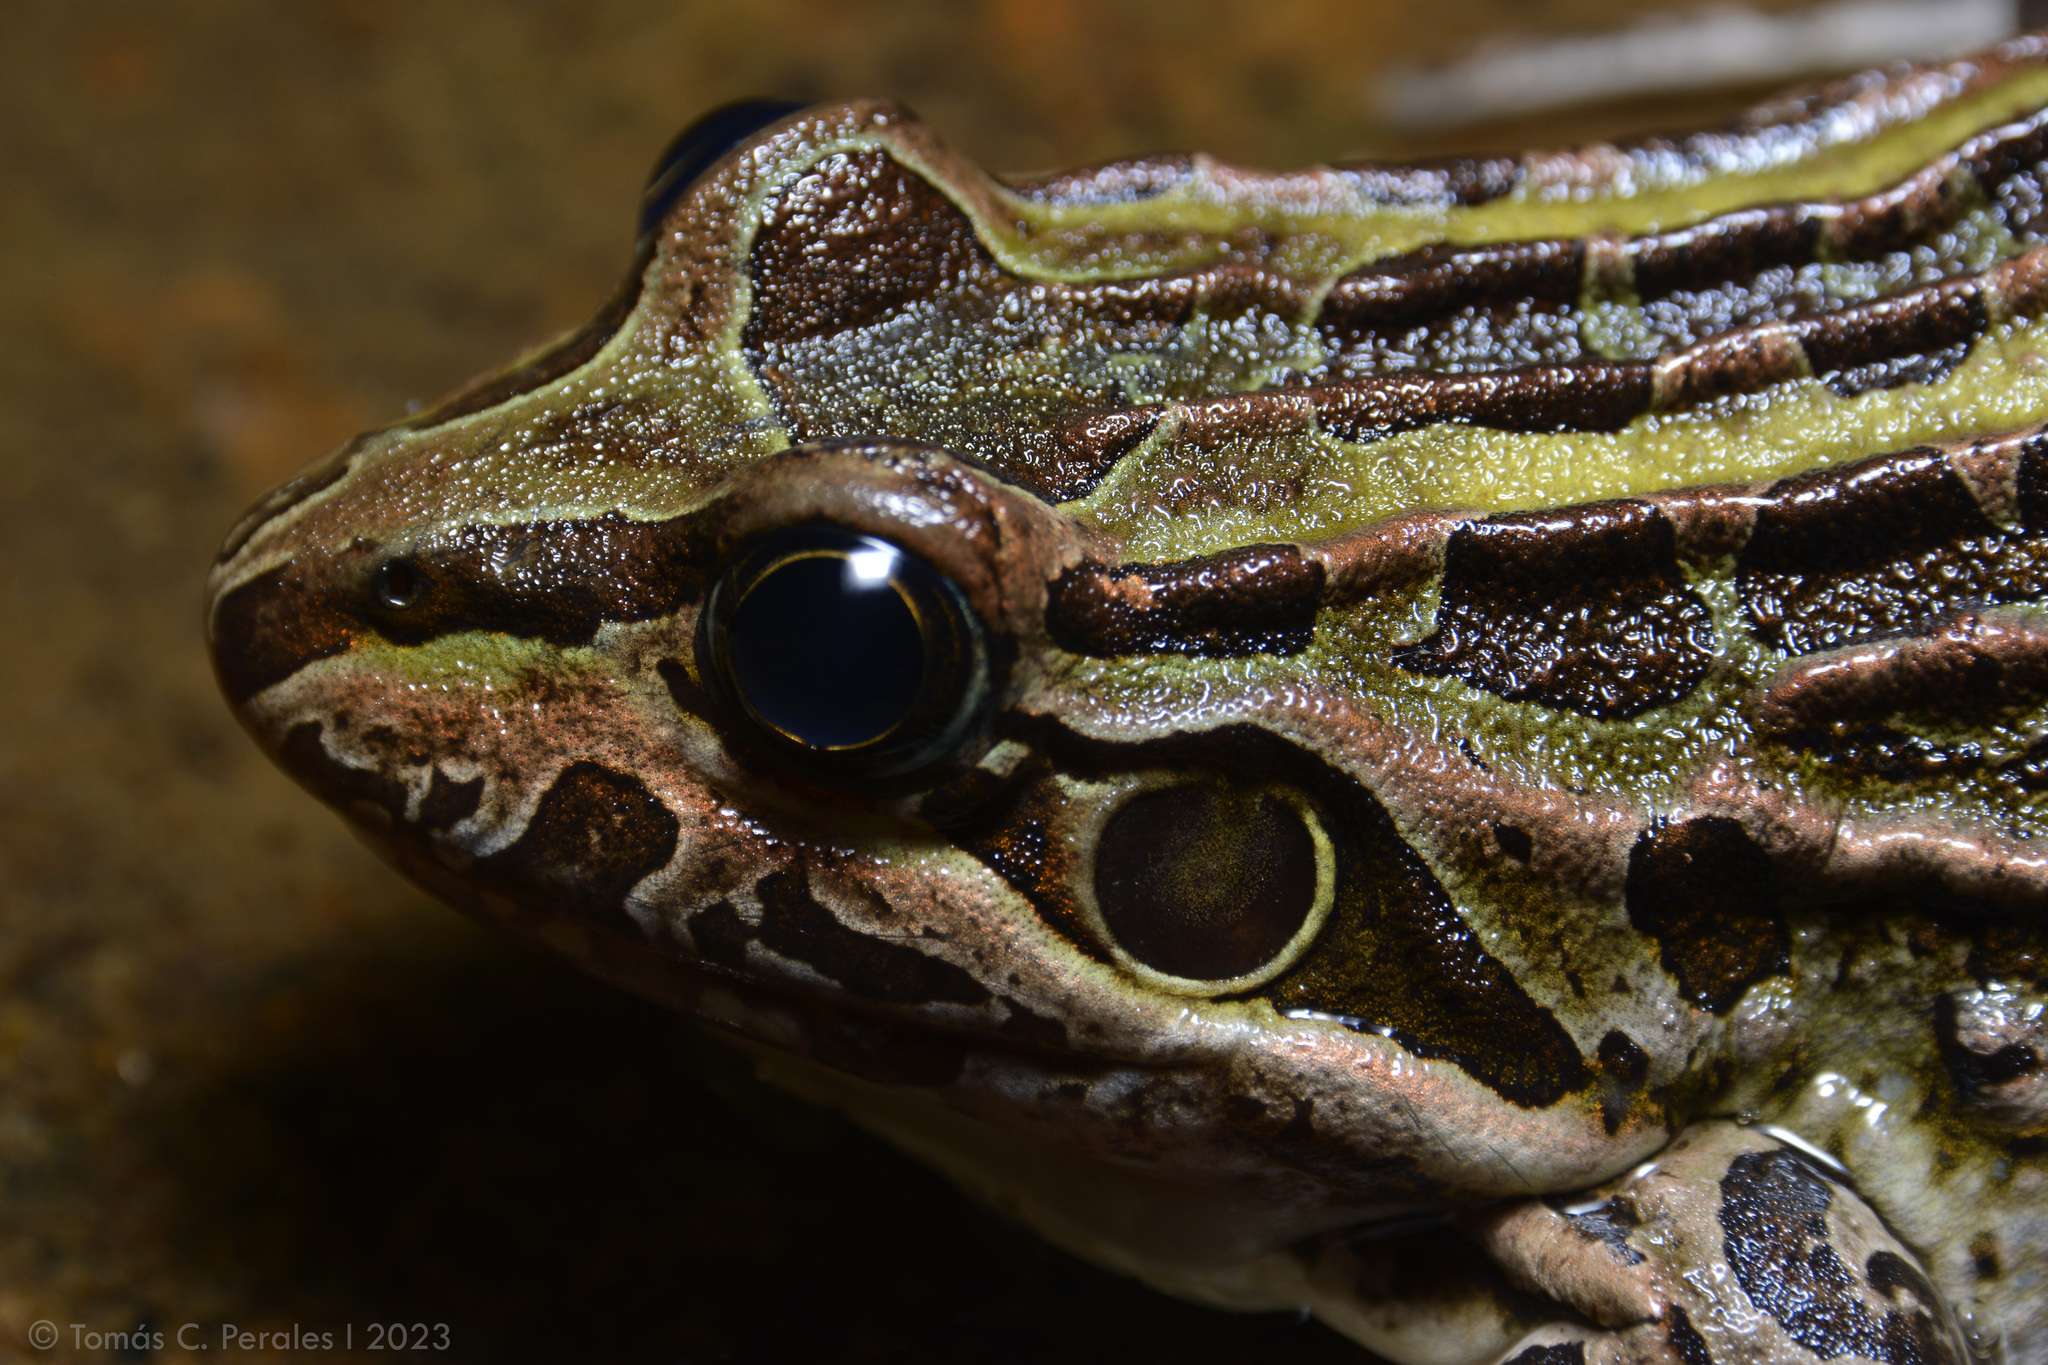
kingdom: Animalia
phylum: Chordata
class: Amphibia
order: Anura
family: Leptodactylidae
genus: Leptodactylus
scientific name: Leptodactylus luctator
